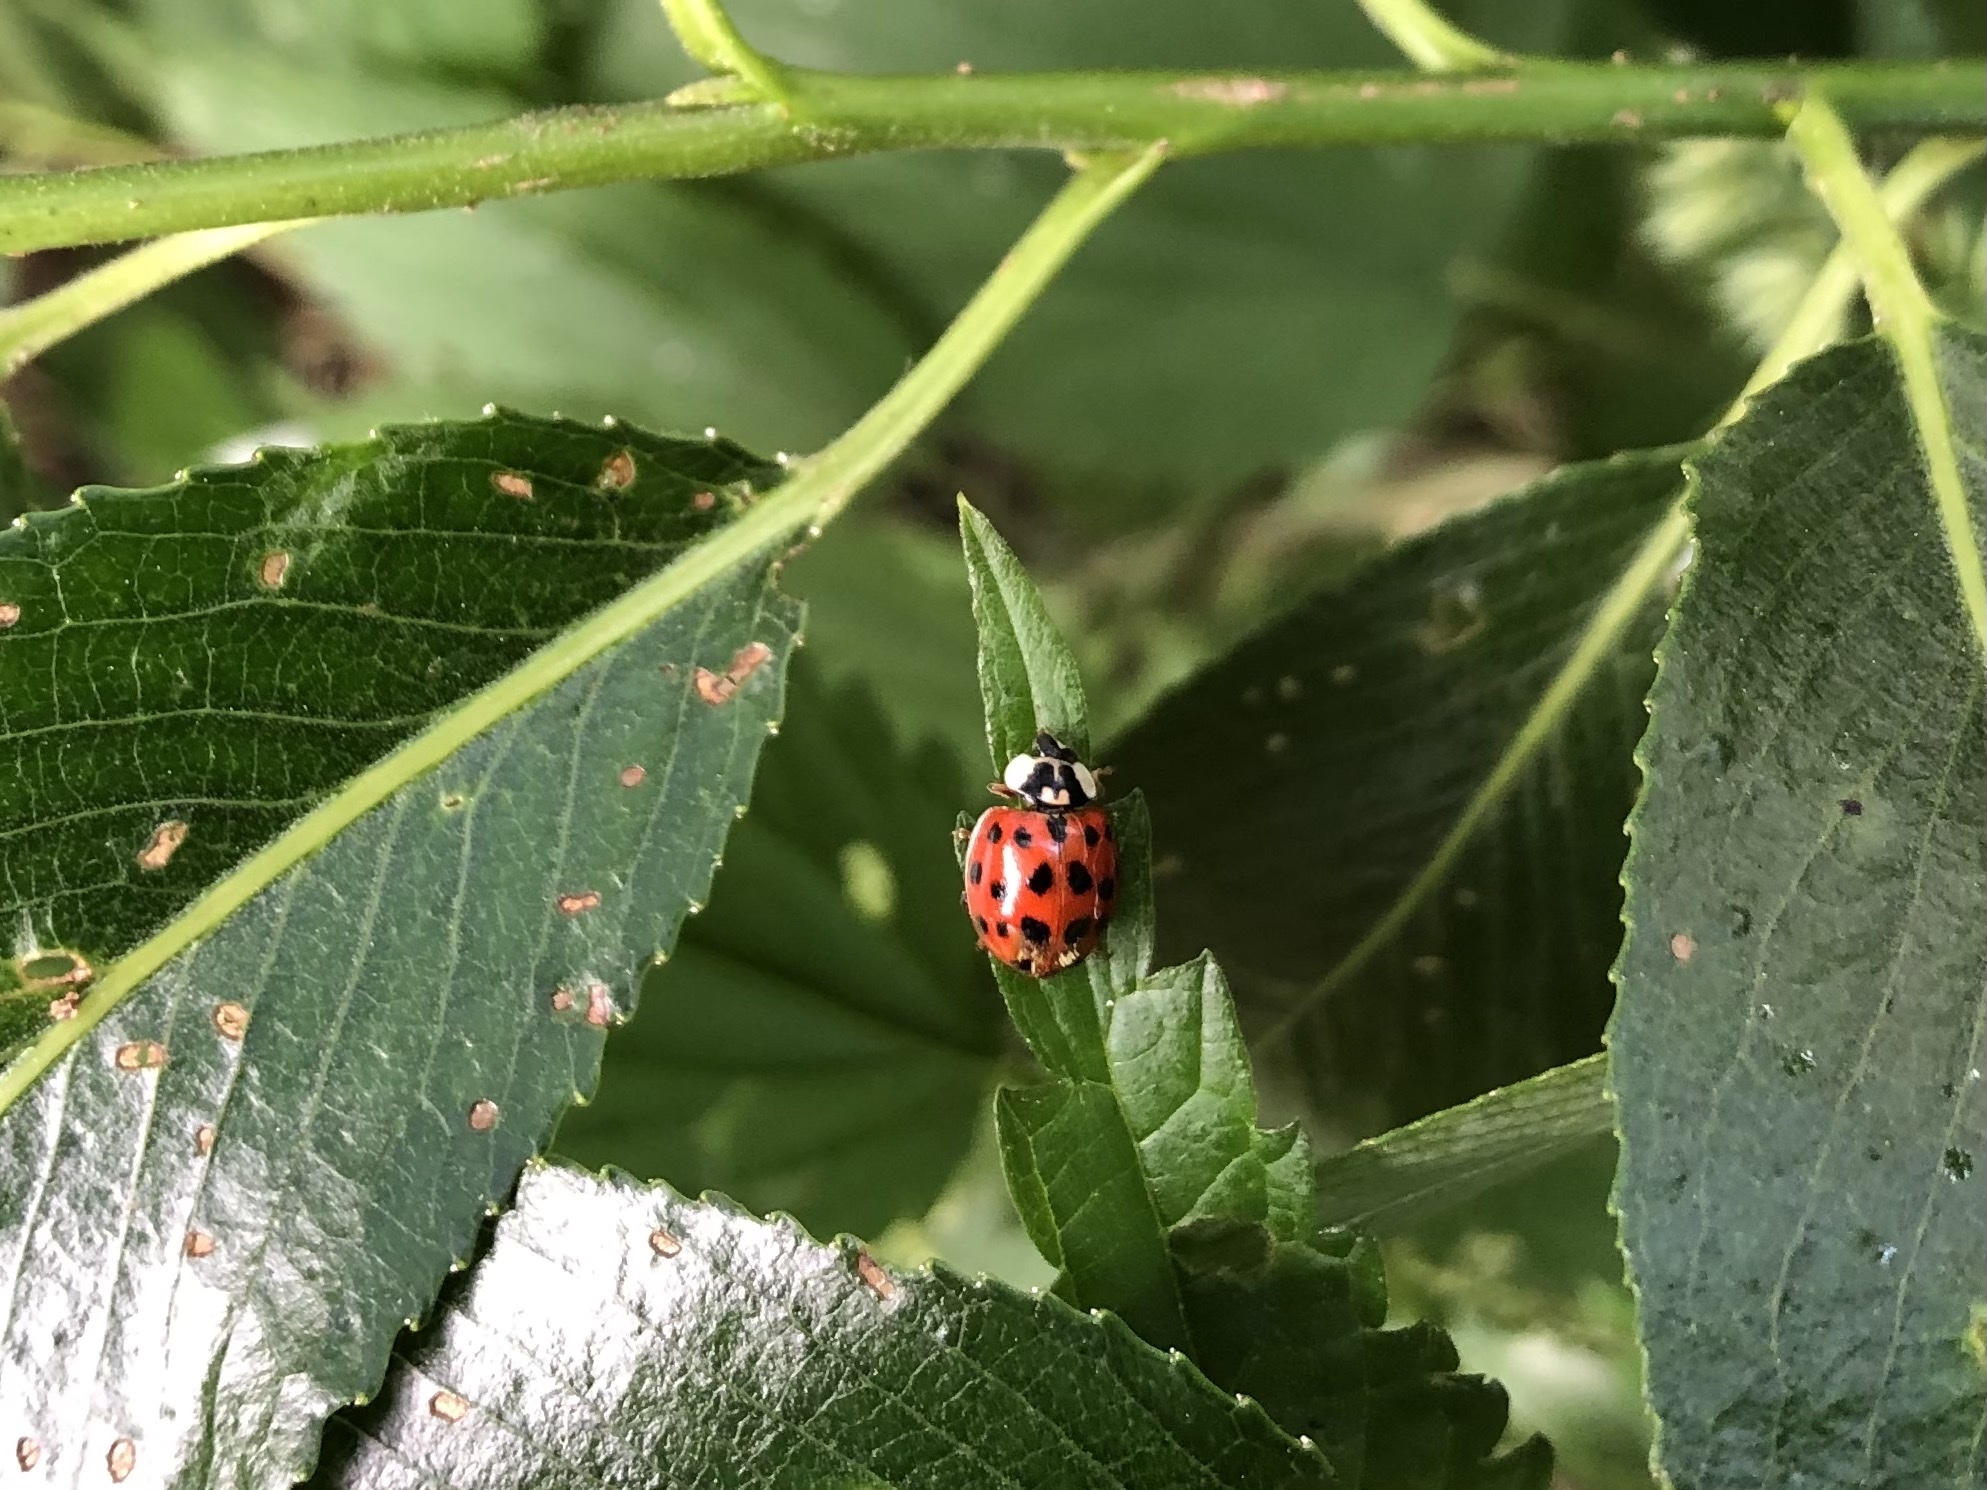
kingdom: Animalia
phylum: Arthropoda
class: Insecta
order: Coleoptera
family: Coccinellidae
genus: Harmonia
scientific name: Harmonia axyridis
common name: Harlequin ladybird
